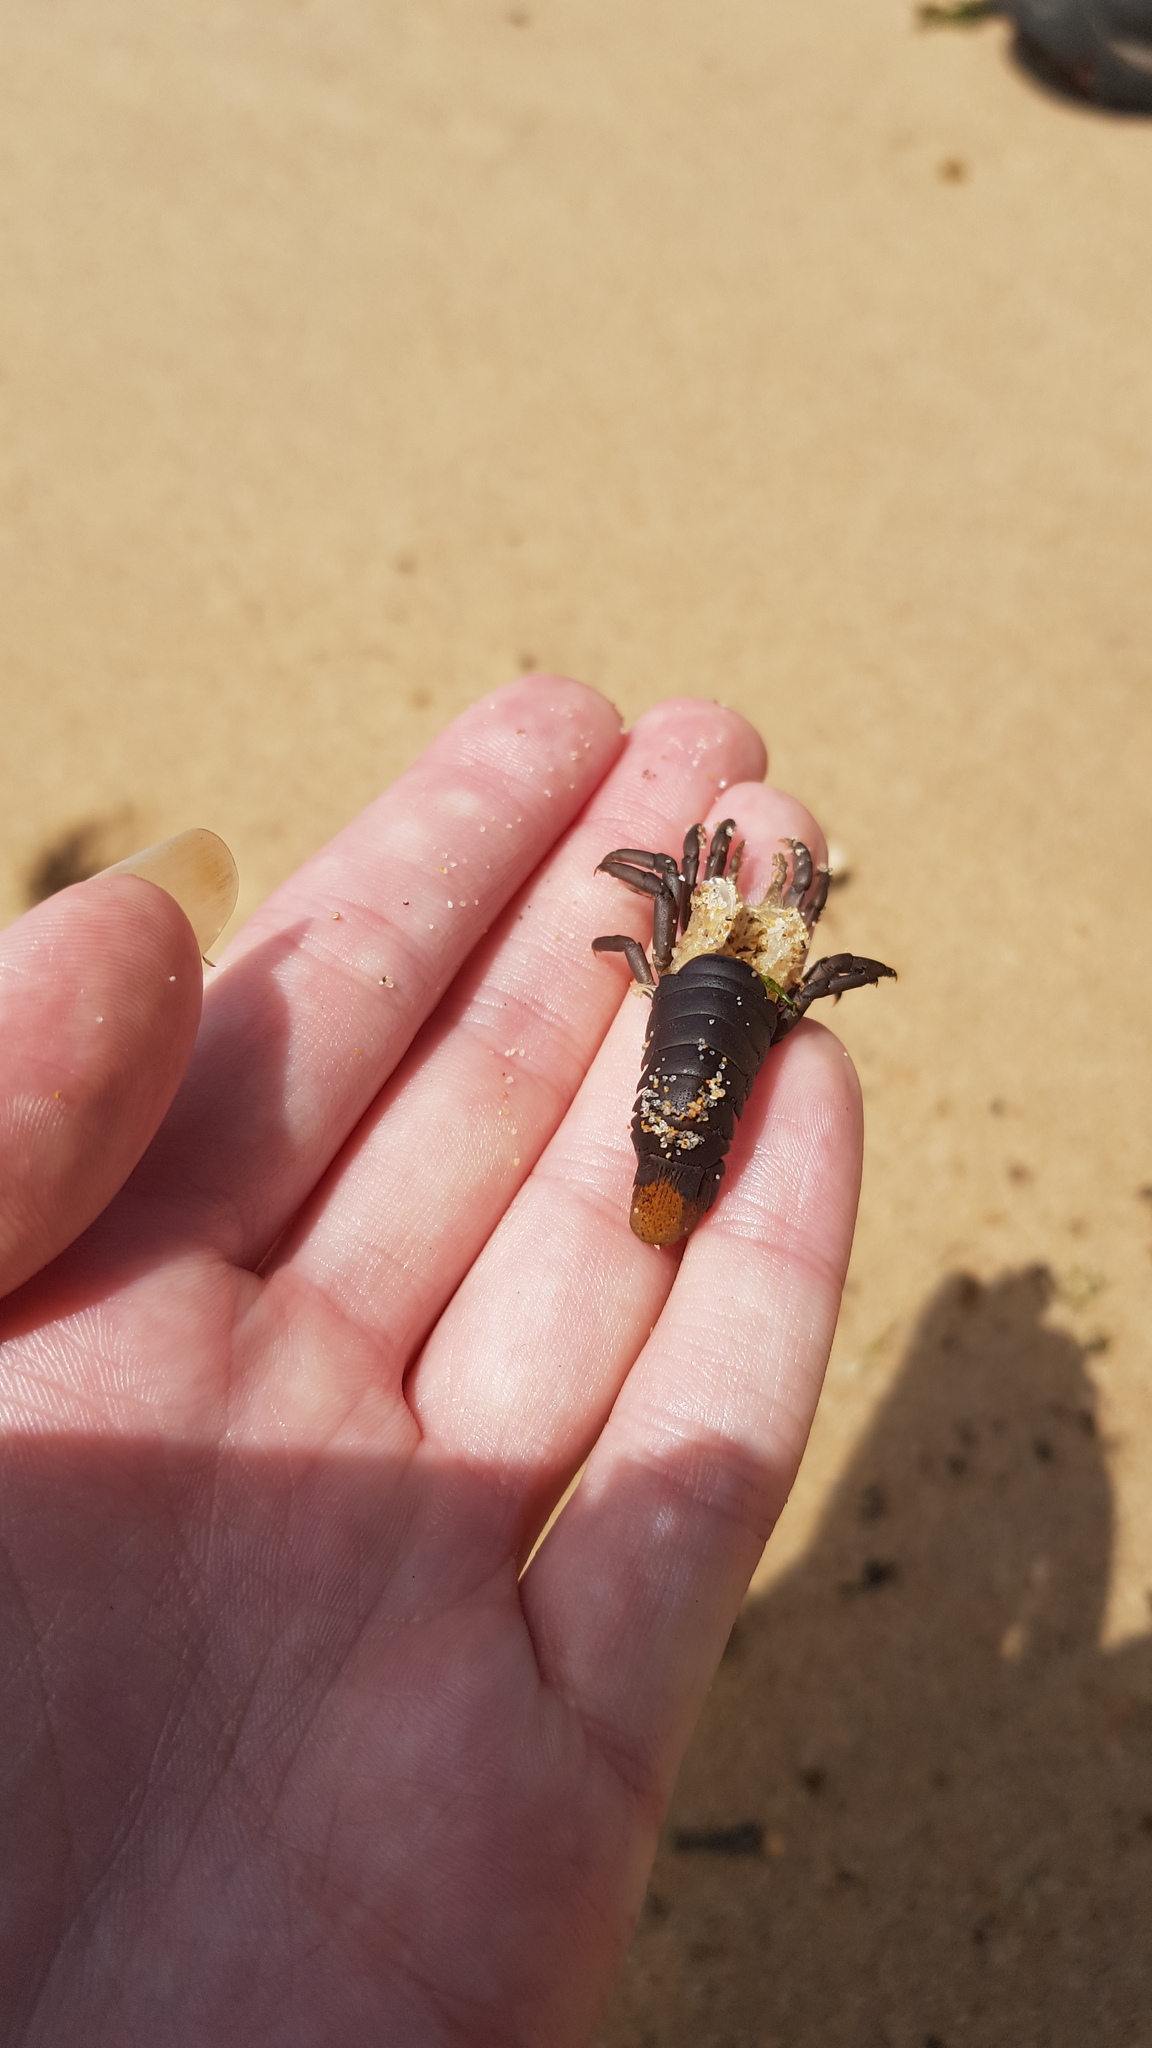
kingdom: Animalia
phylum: Arthropoda
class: Malacostraca
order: Decapoda
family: Palinuridae
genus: Sagmariasus
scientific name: Sagmariasus verreauxi
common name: Green rock lobster
